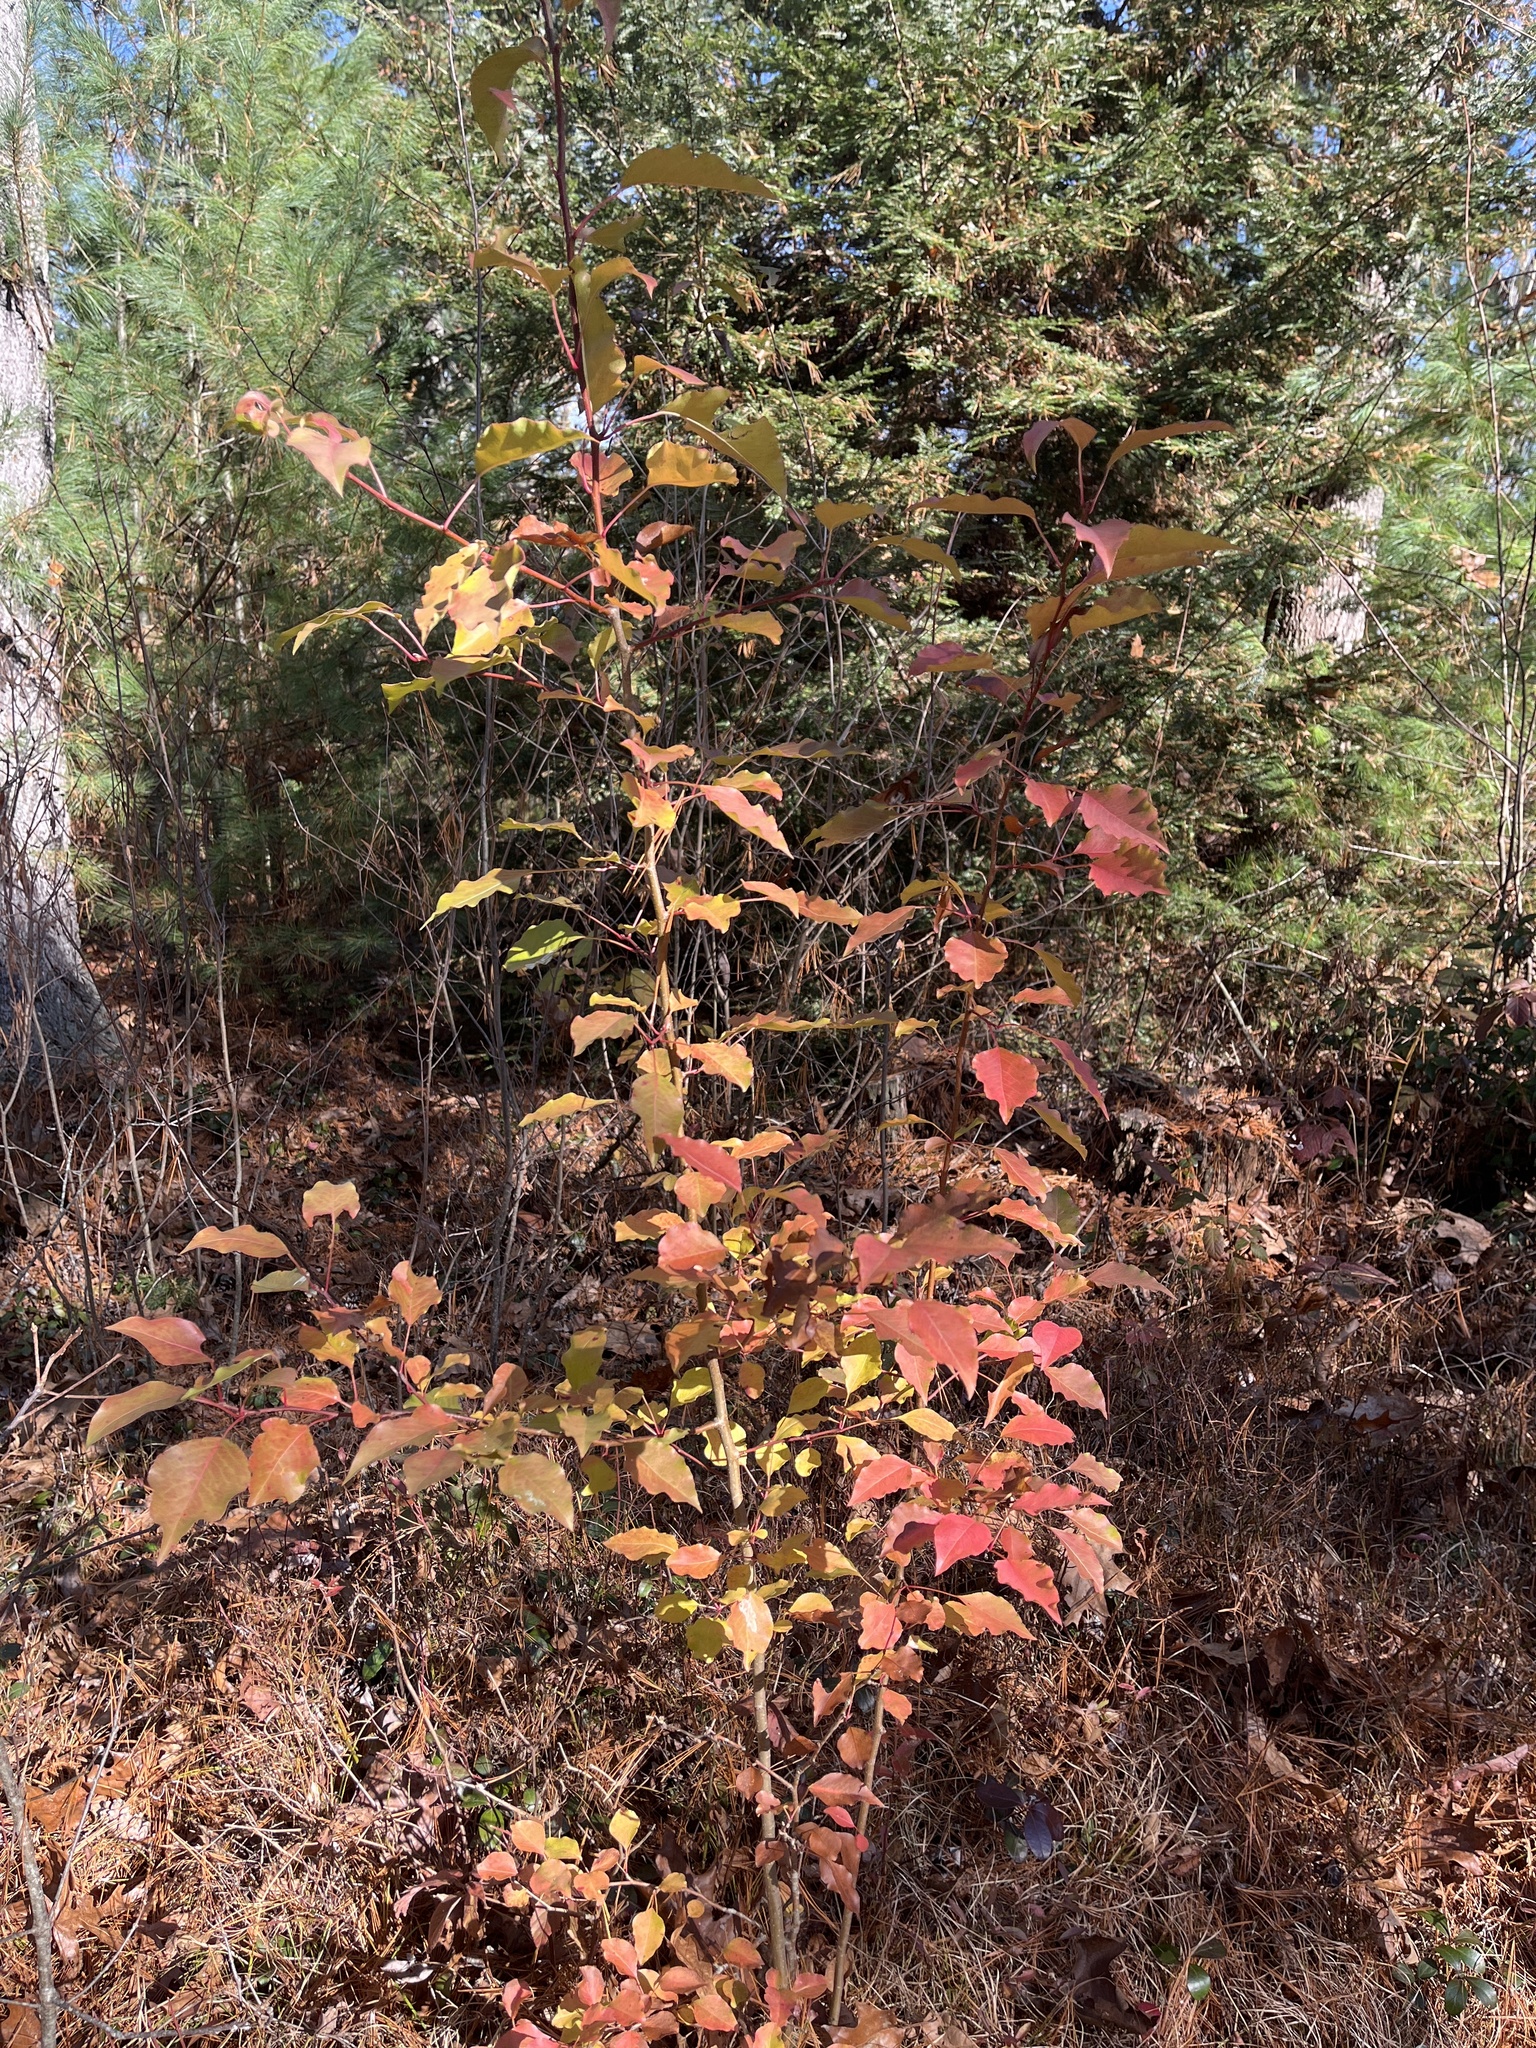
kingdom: Plantae
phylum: Tracheophyta
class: Magnoliopsida
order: Rosales
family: Rosaceae
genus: Pyrus
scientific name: Pyrus calleryana
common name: Callery pear
